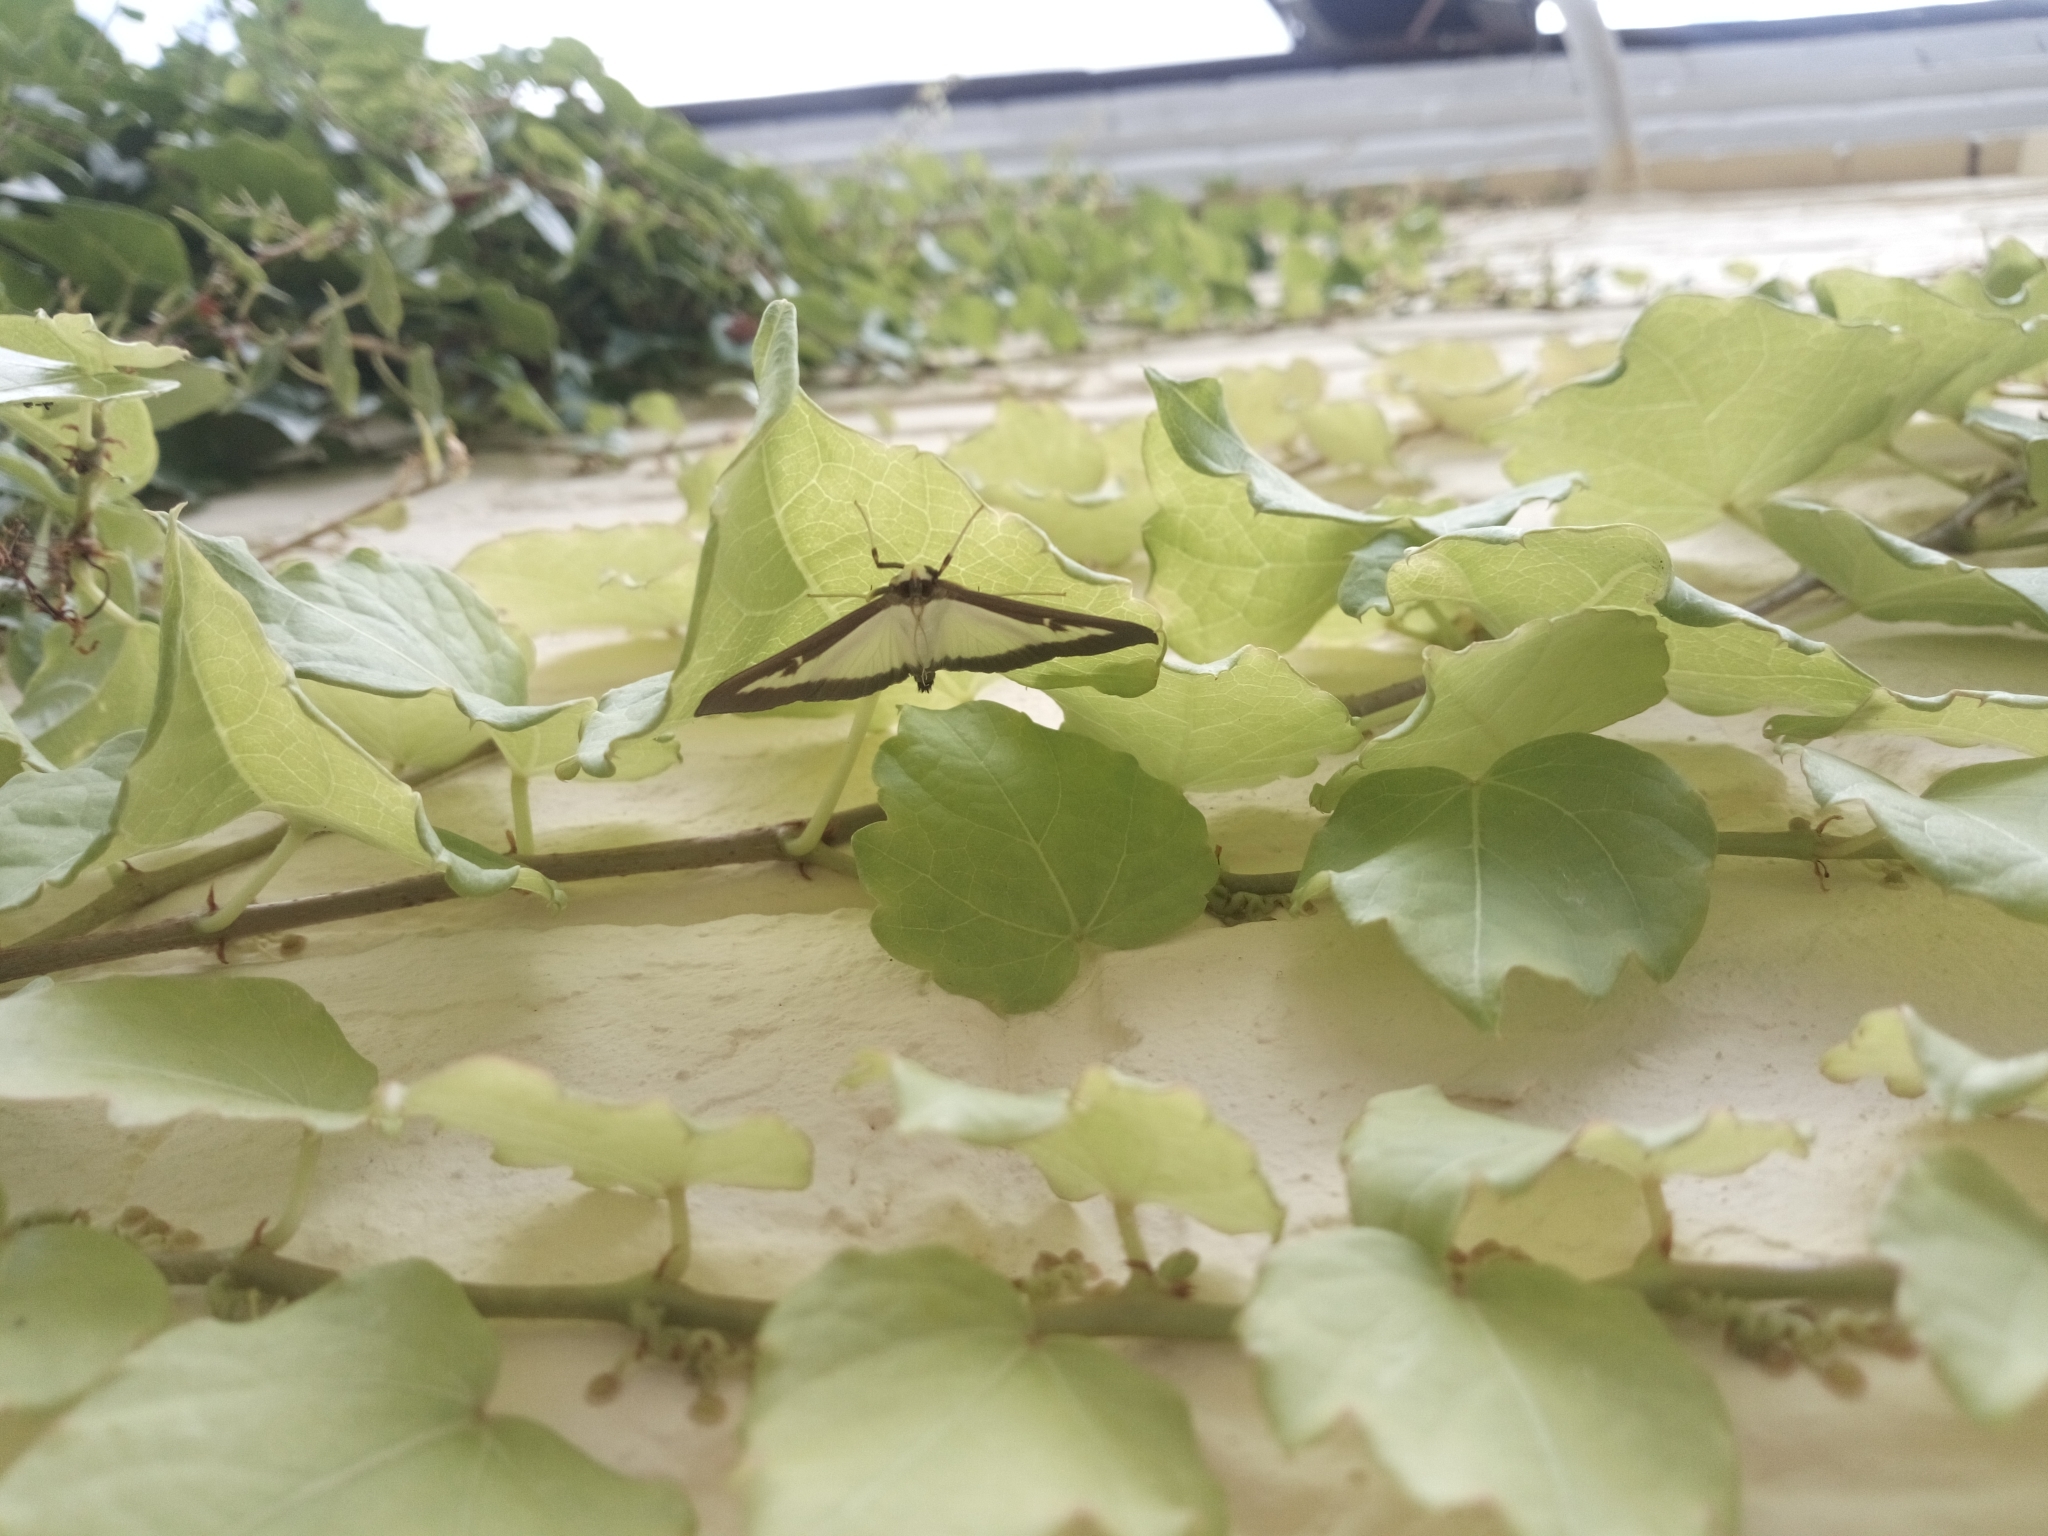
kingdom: Animalia
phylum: Arthropoda
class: Insecta
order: Lepidoptera
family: Crambidae
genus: Cydalima
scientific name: Cydalima perspectalis
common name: Box tree moth
